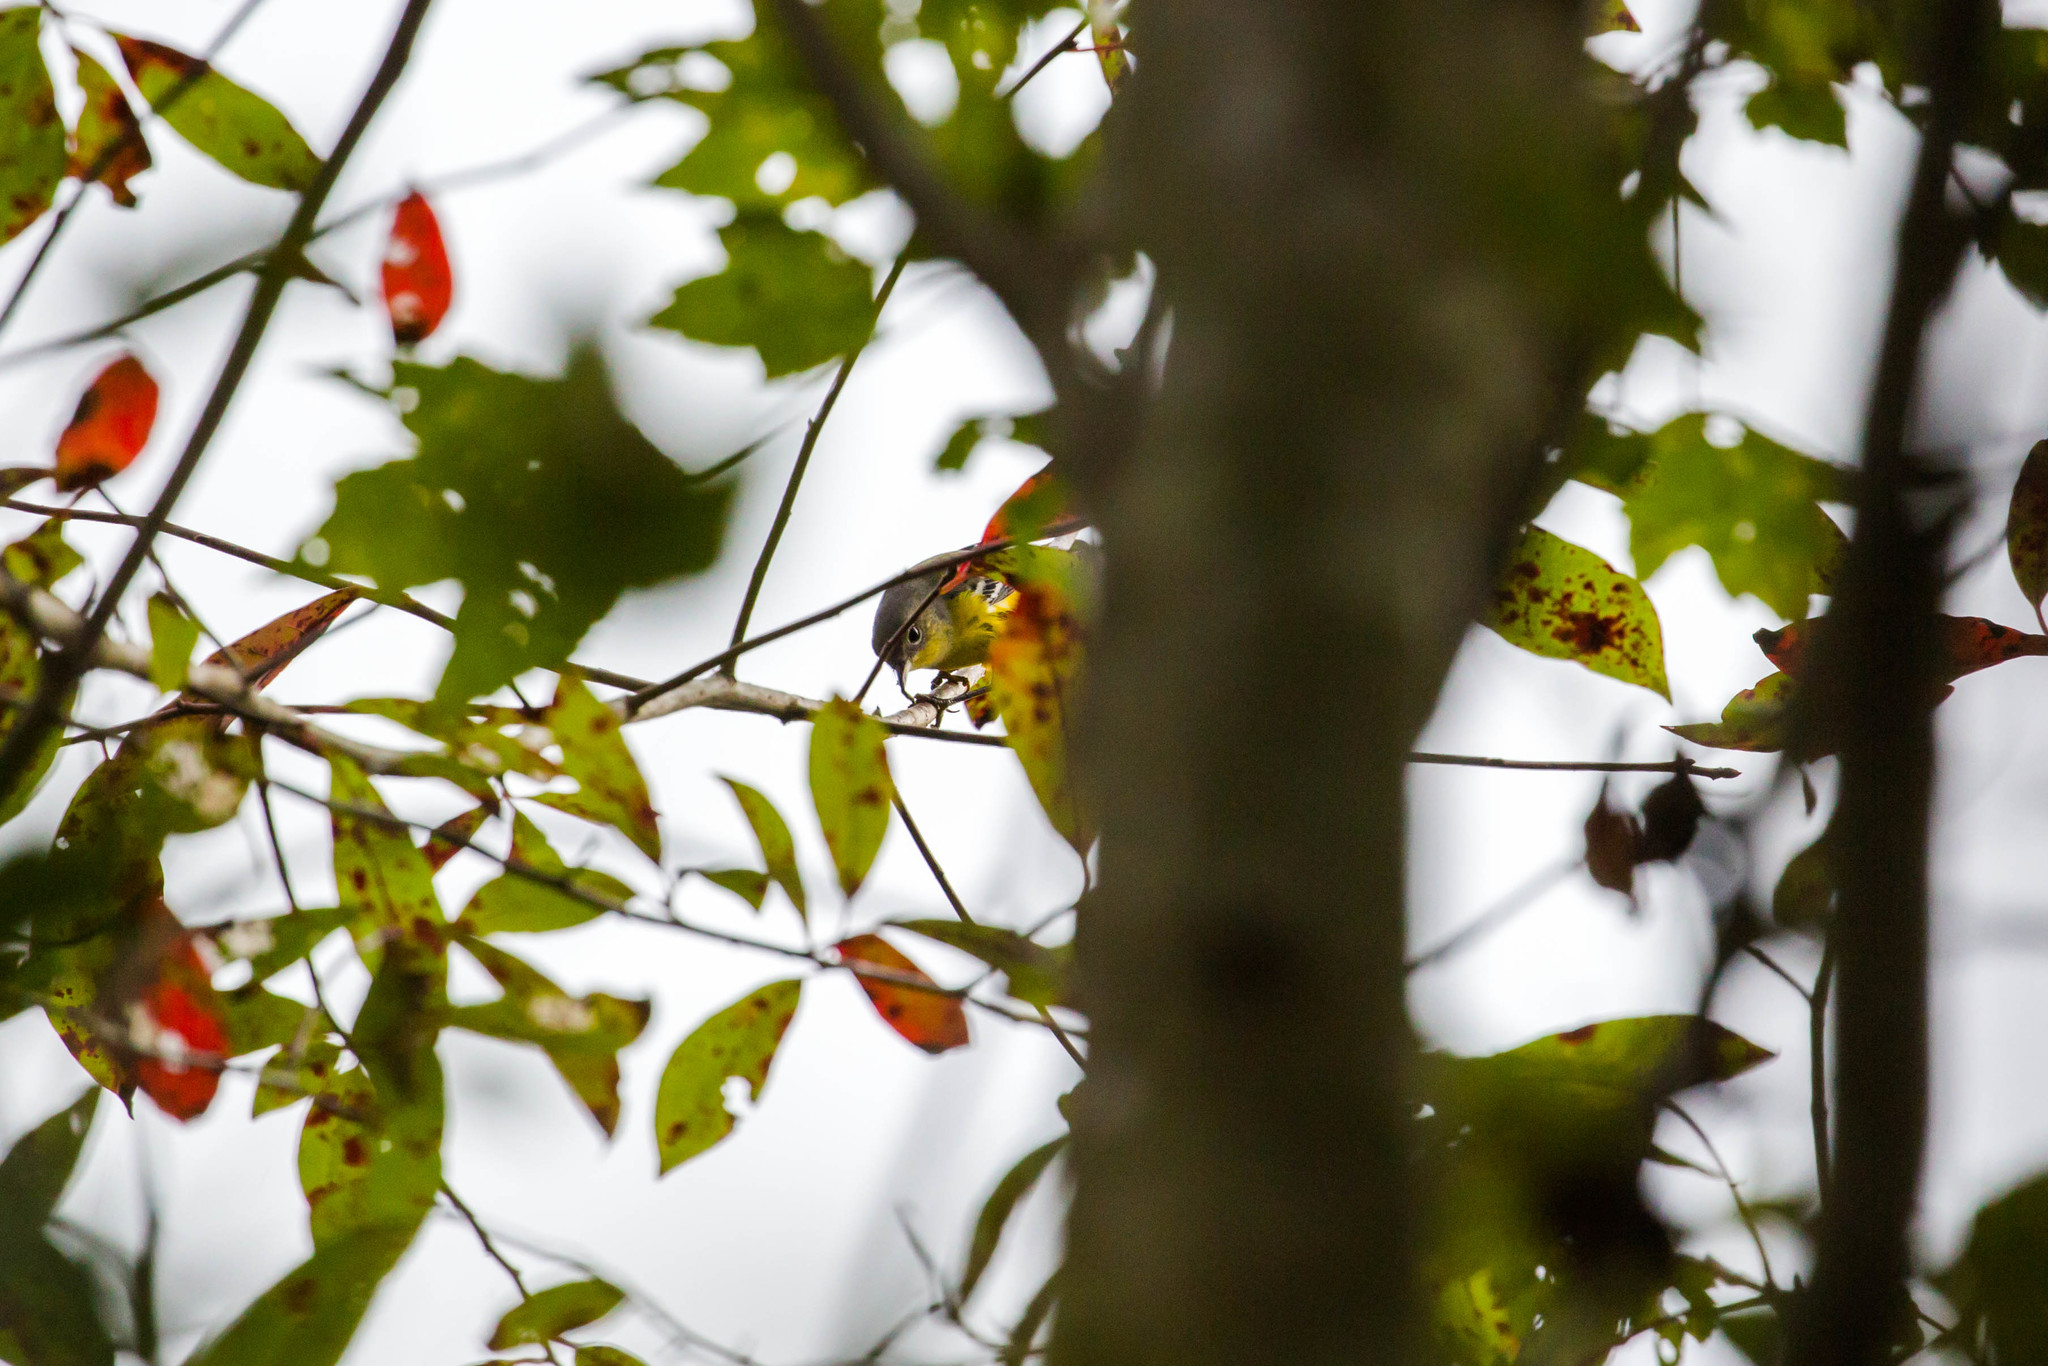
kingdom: Animalia
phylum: Chordata
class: Aves
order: Passeriformes
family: Parulidae
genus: Setophaga
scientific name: Setophaga magnolia
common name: Magnolia warbler
